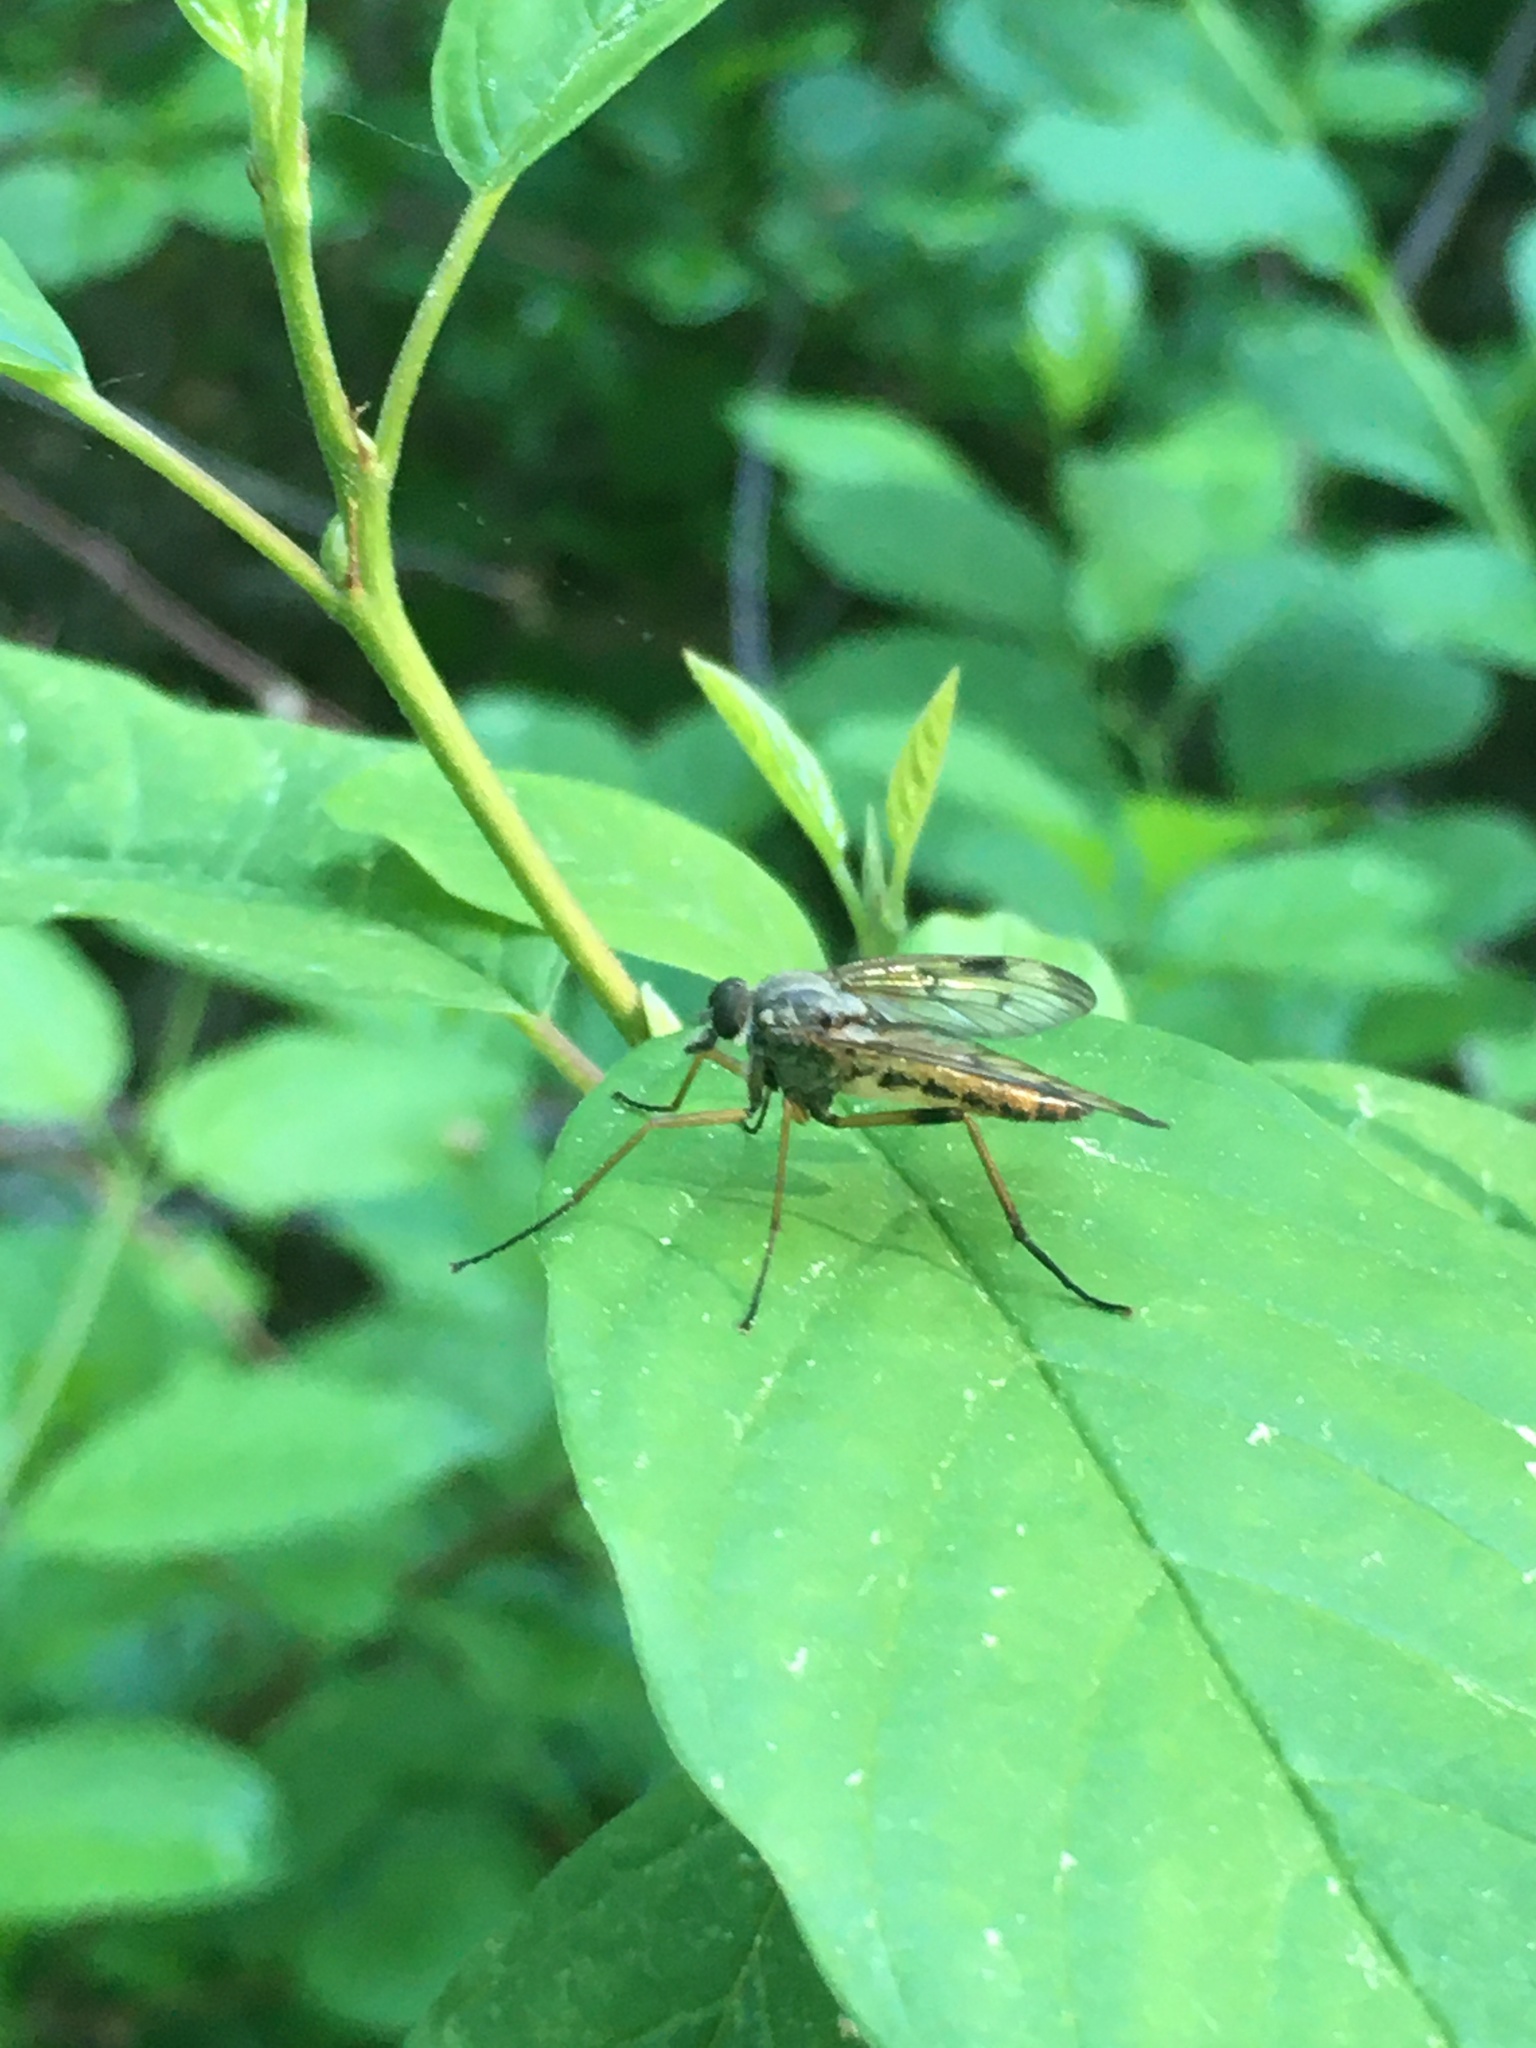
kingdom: Animalia
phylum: Arthropoda
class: Insecta
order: Diptera
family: Rhagionidae
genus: Rhagio
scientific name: Rhagio scolopacea
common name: Downlooker snipefly
